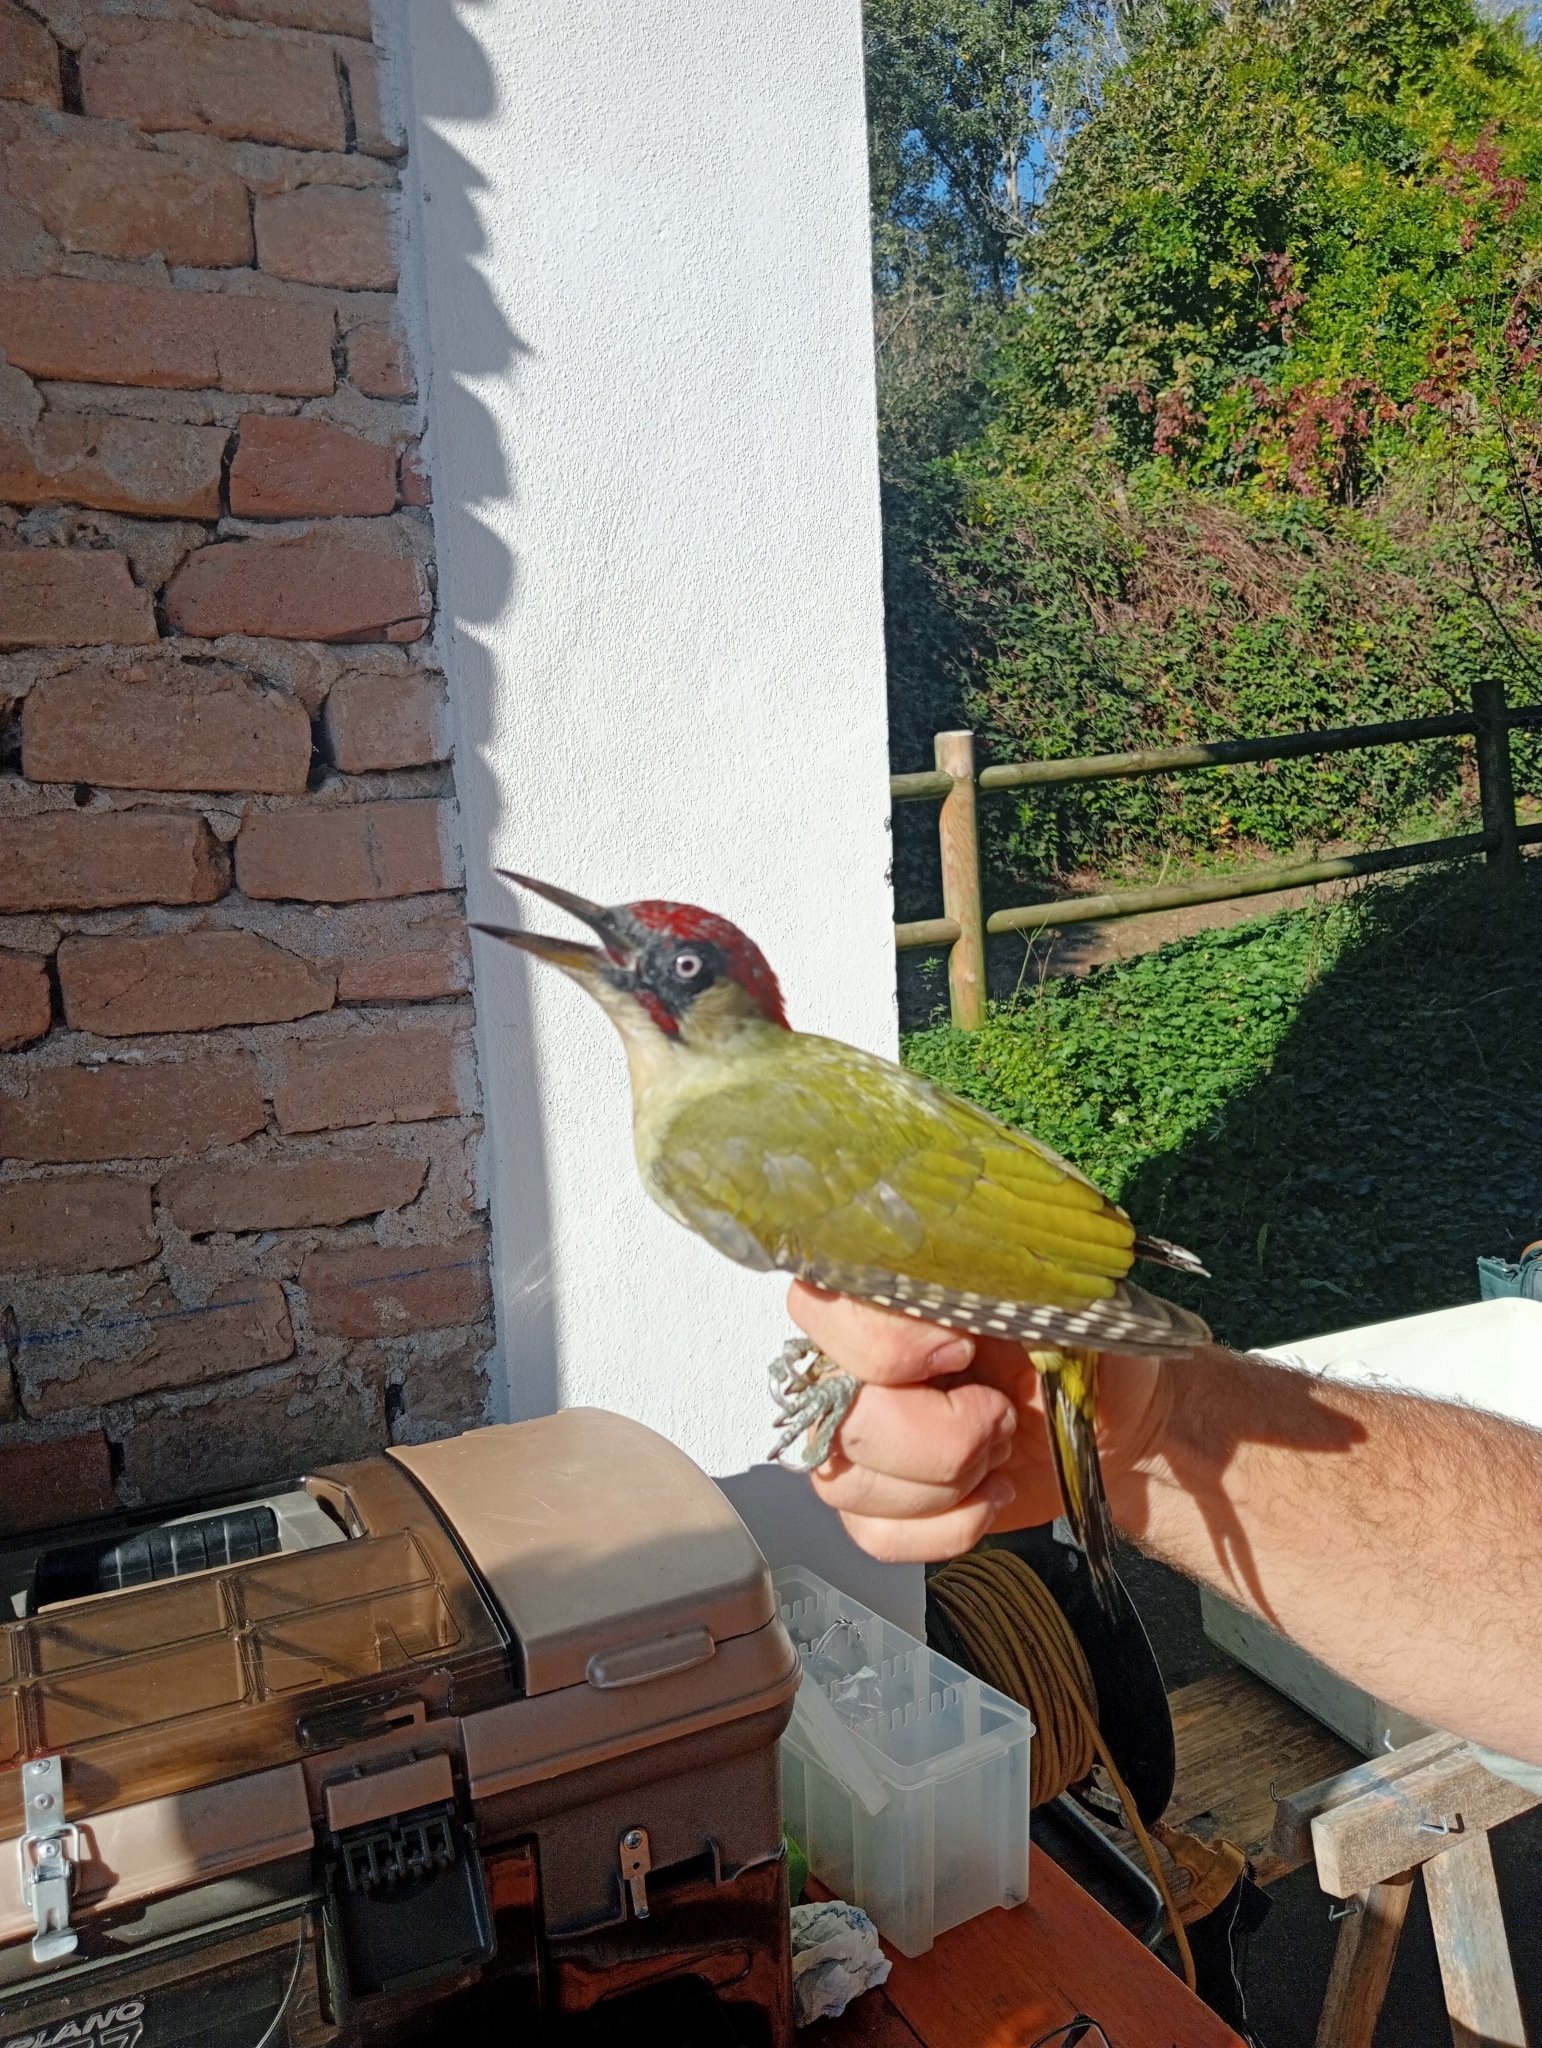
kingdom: Animalia
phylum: Chordata
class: Aves
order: Piciformes
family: Picidae
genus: Picus
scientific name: Picus viridis
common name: European green woodpecker
